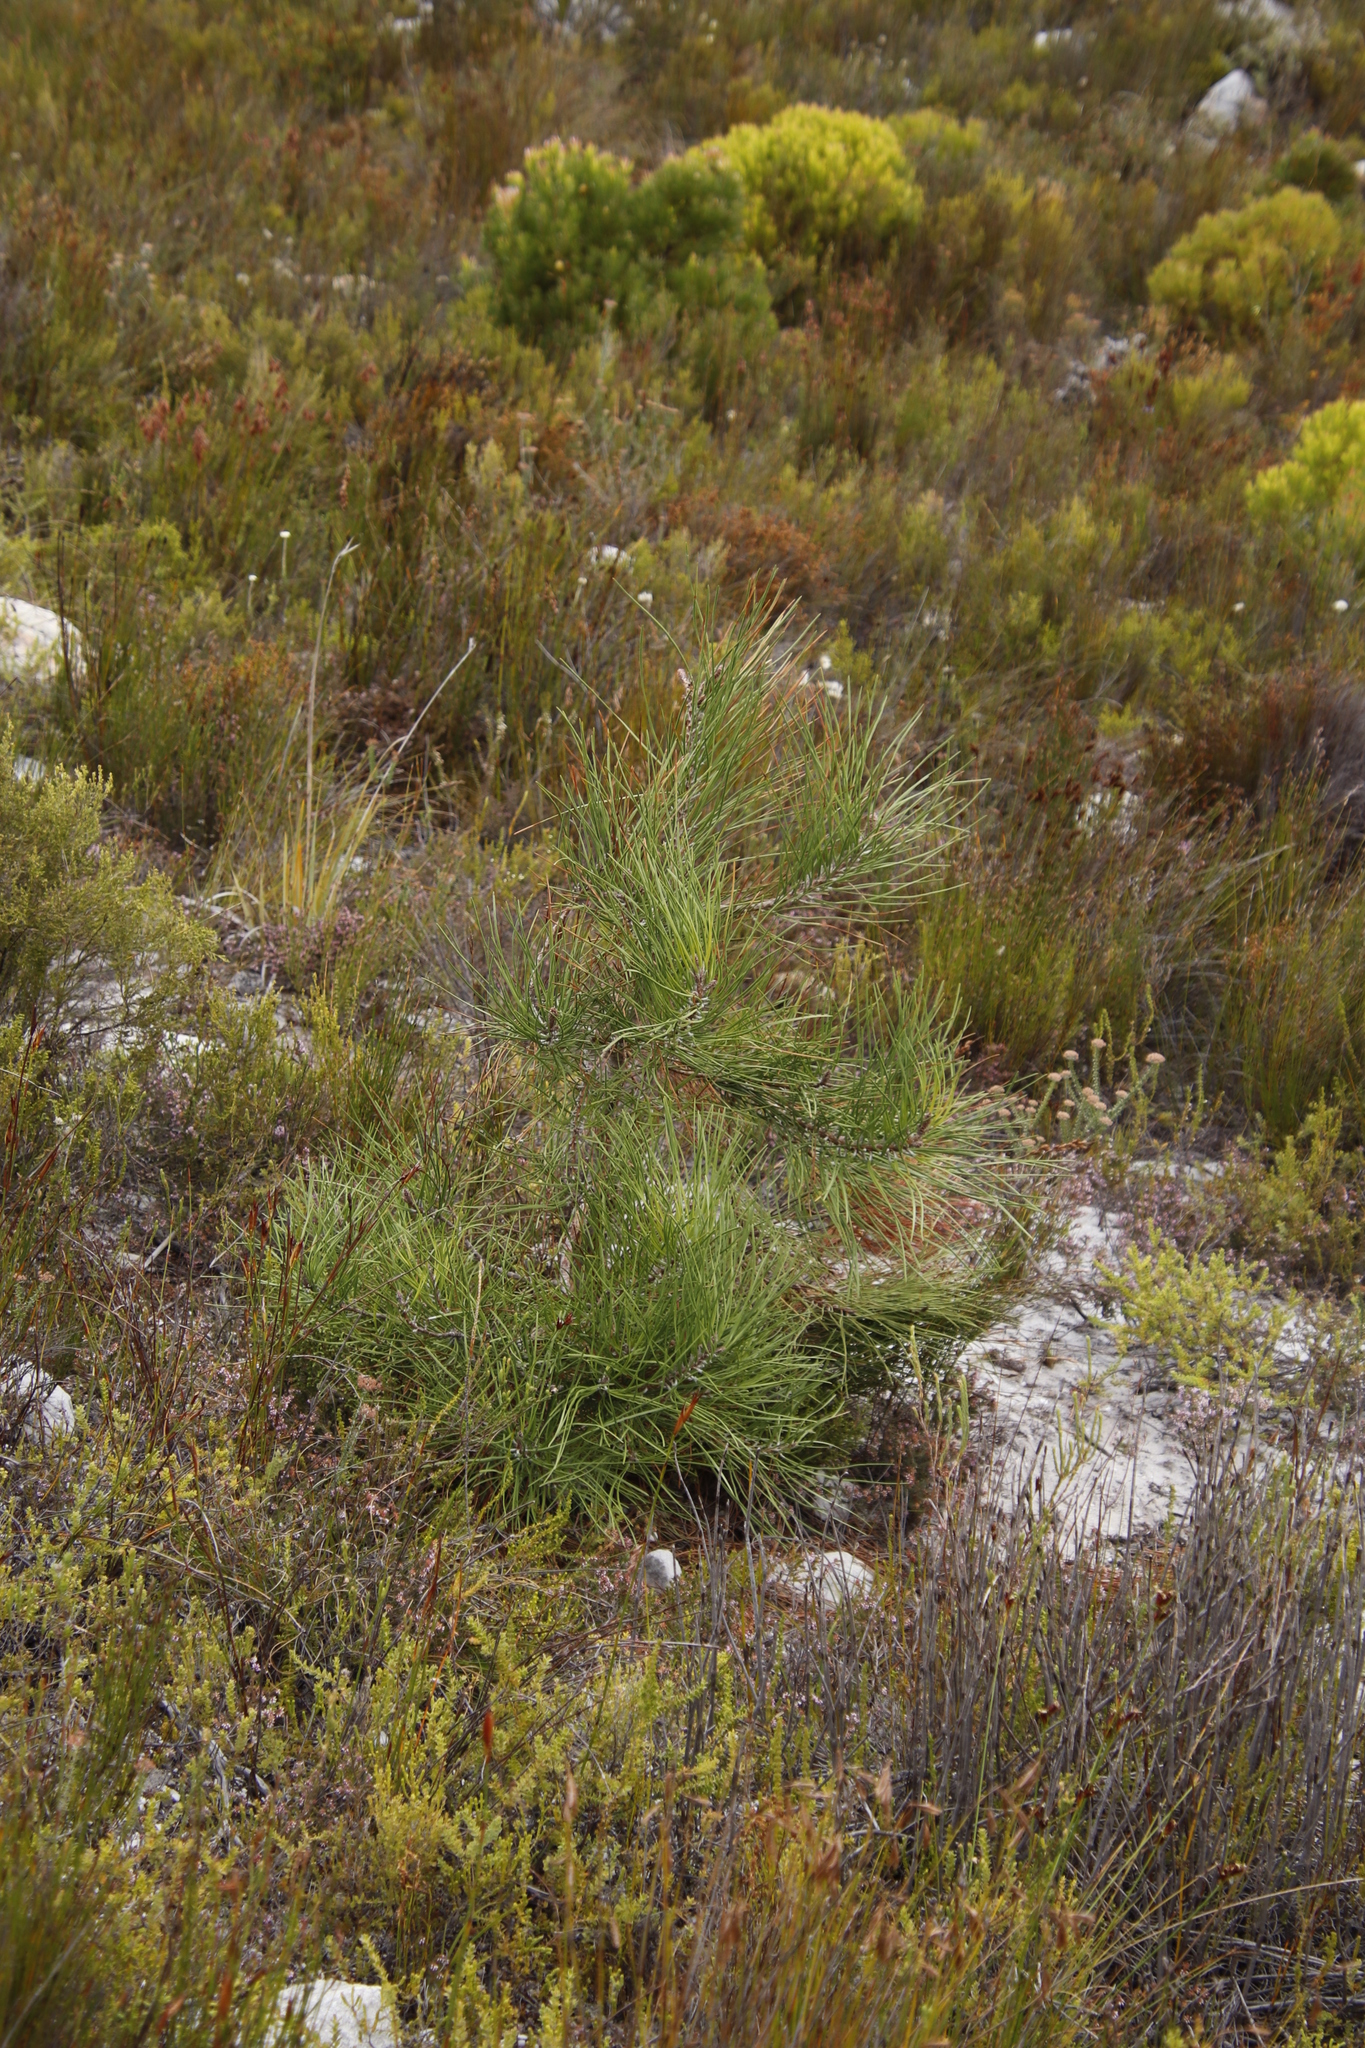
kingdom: Plantae
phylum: Tracheophyta
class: Pinopsida
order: Pinales
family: Pinaceae
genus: Pinus
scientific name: Pinus pinaster
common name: Maritime pine
